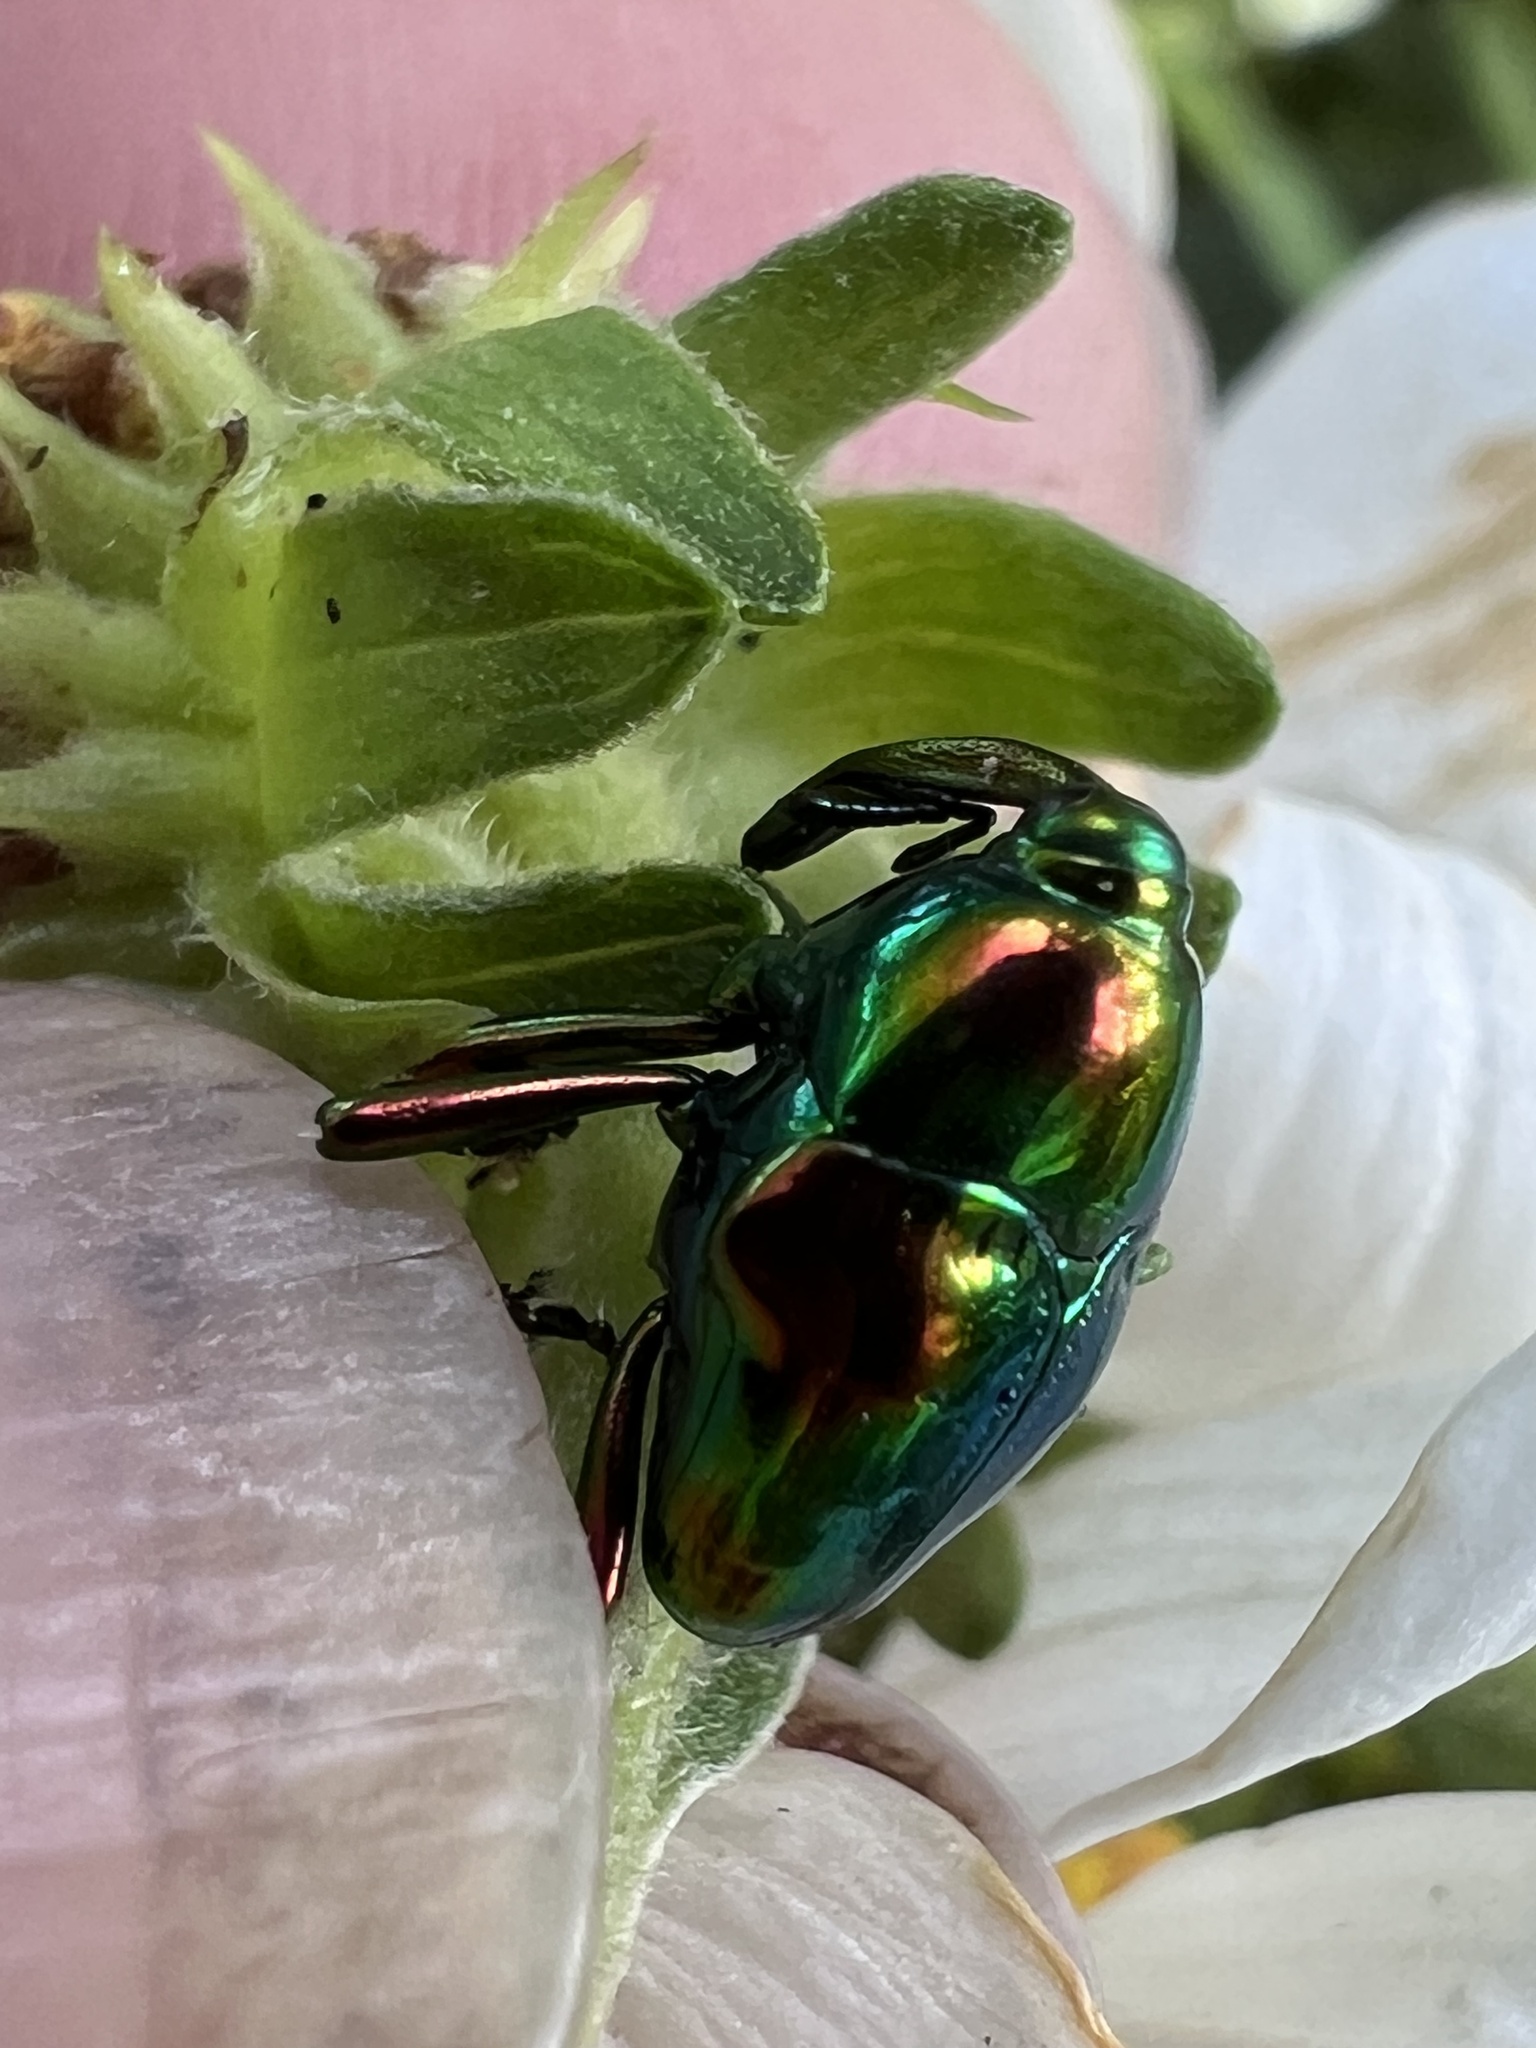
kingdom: Animalia
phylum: Arthropoda
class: Insecta
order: Coleoptera
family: Eurhynchidae
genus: Eurhinus
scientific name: Eurhinus magnificus
